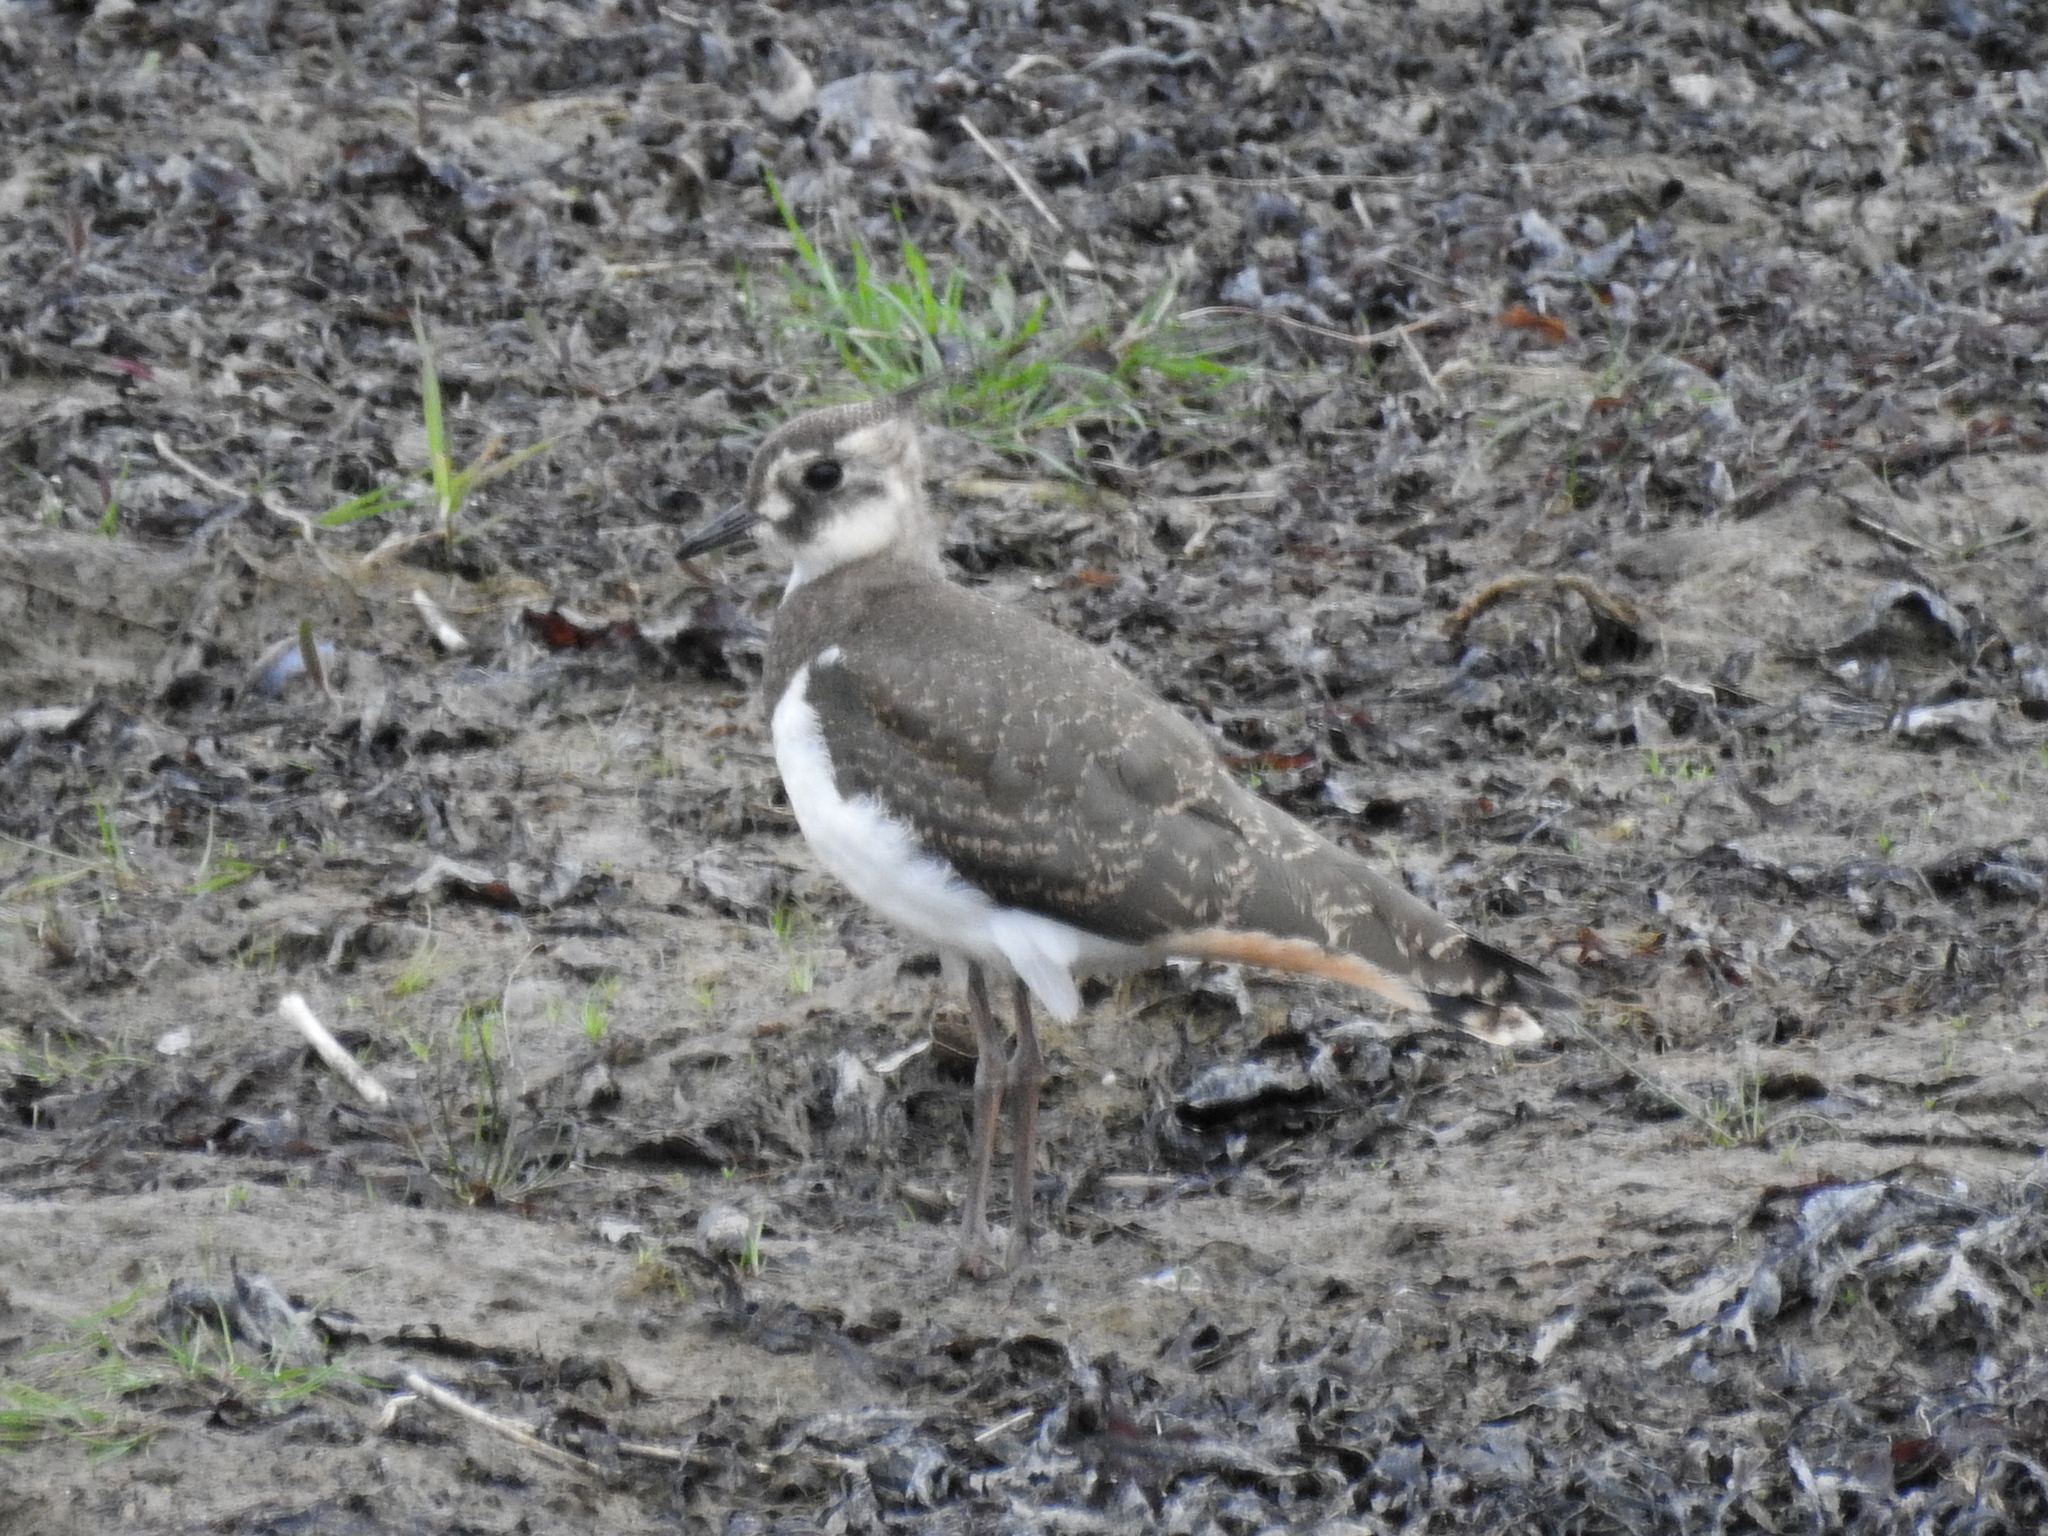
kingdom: Animalia
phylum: Chordata
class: Aves
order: Charadriiformes
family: Charadriidae
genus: Vanellus
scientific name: Vanellus vanellus
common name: Northern lapwing
